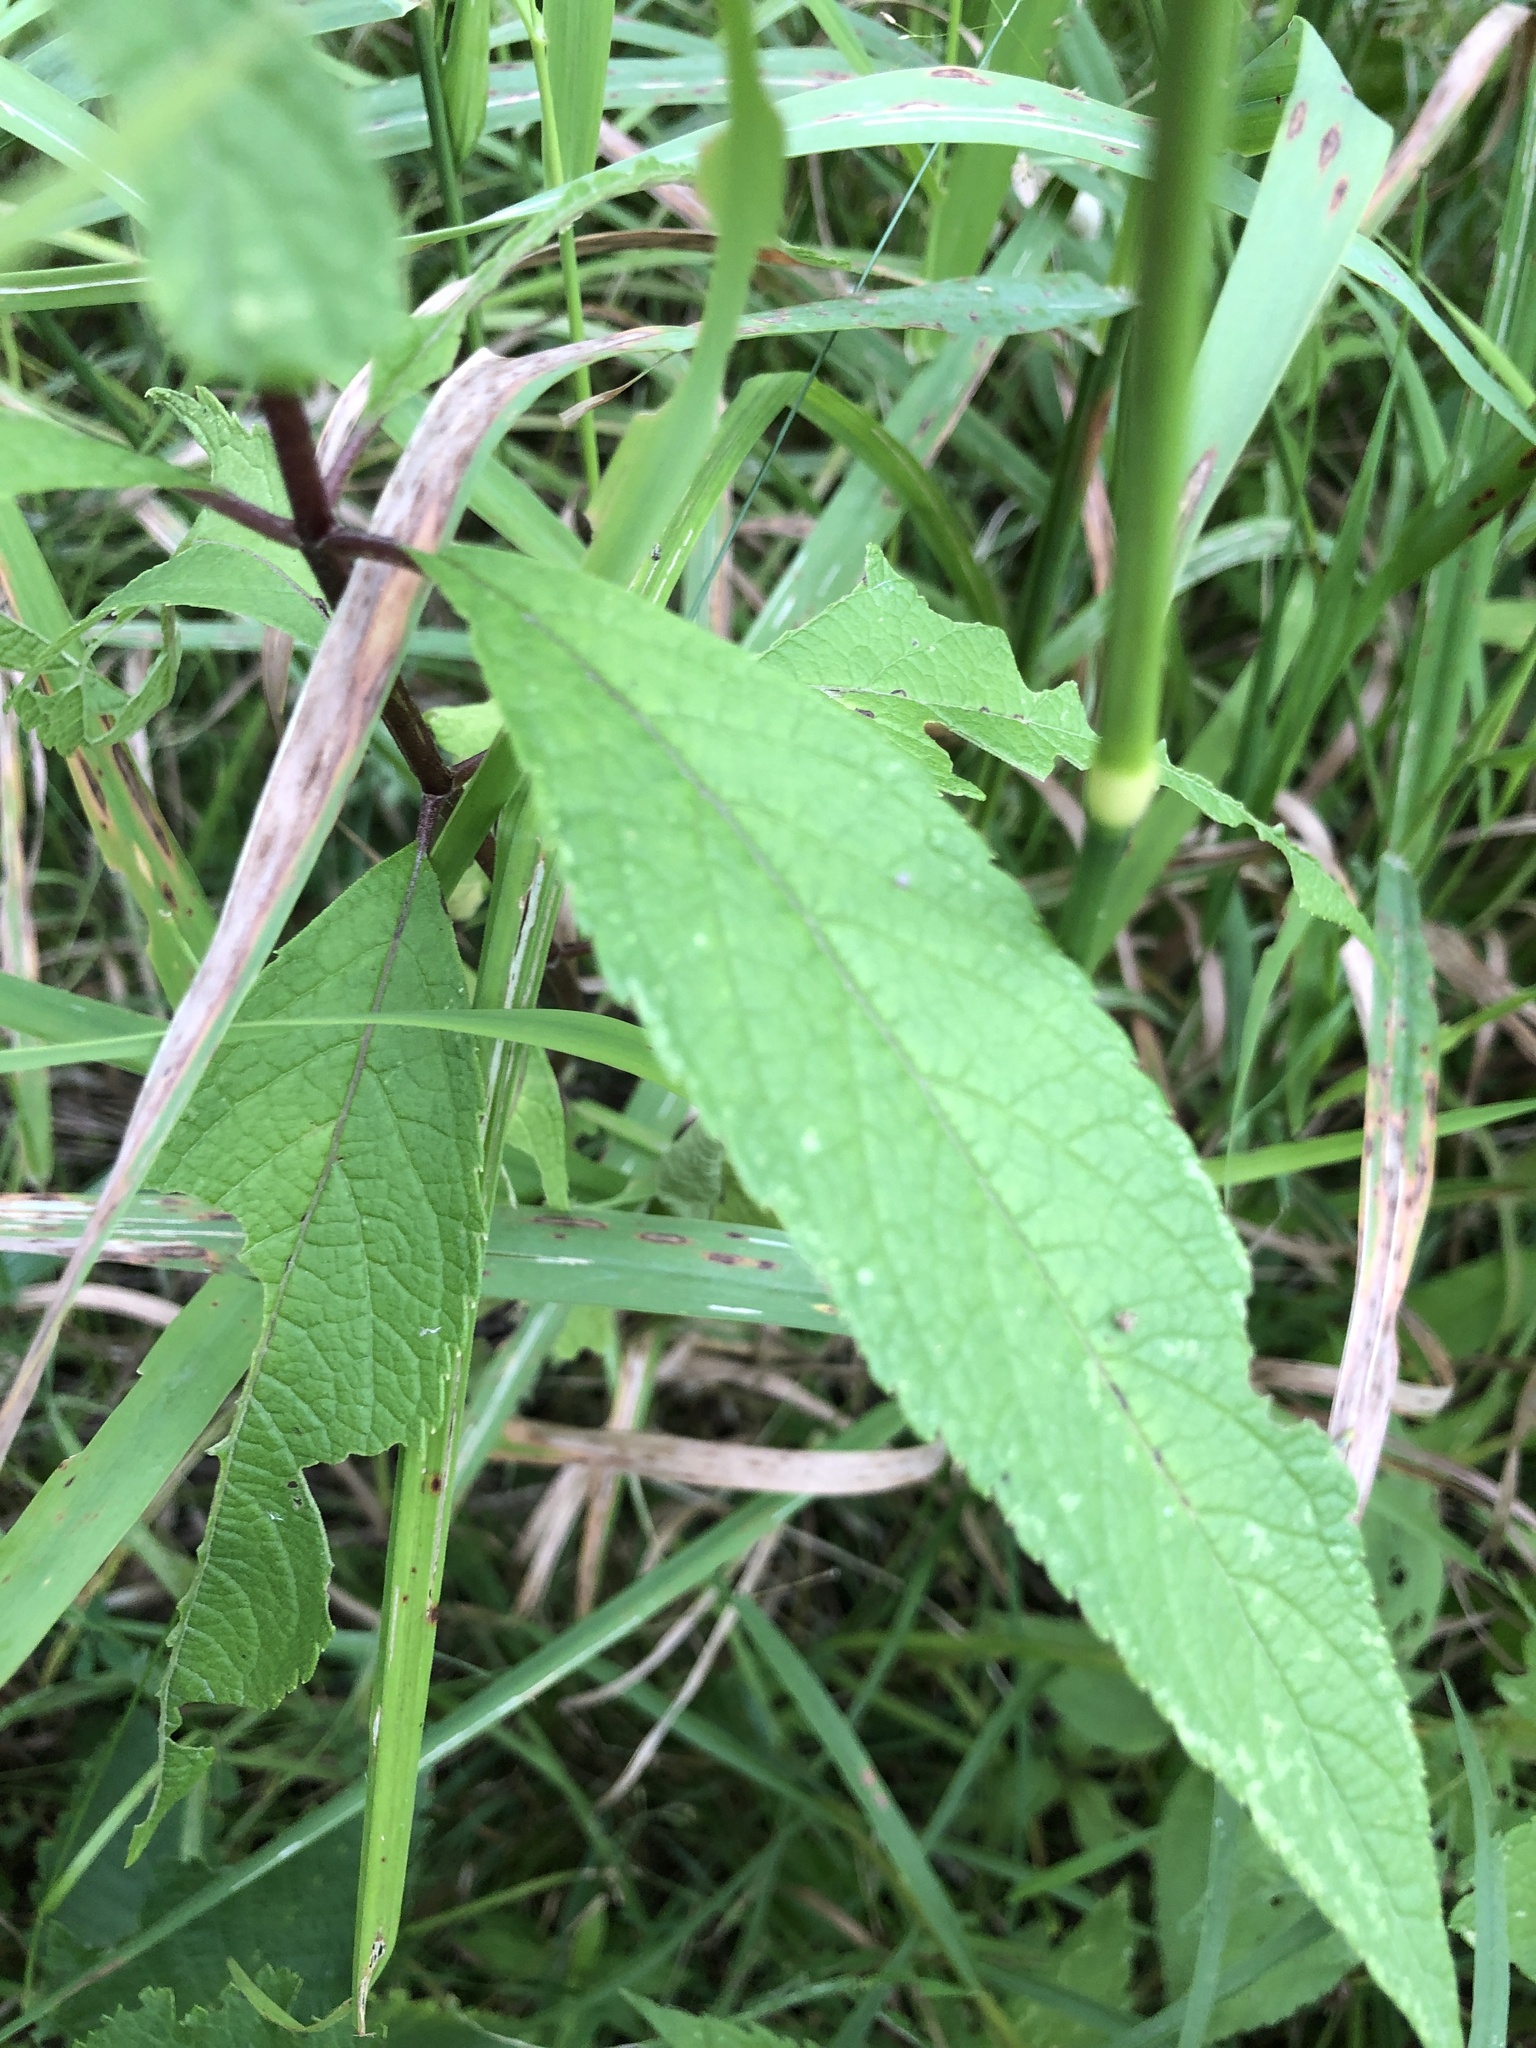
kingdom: Plantae
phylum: Tracheophyta
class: Magnoliopsida
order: Asterales
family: Asteraceae
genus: Eutrochium
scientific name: Eutrochium maculatum
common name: Spotted joe pye weed
